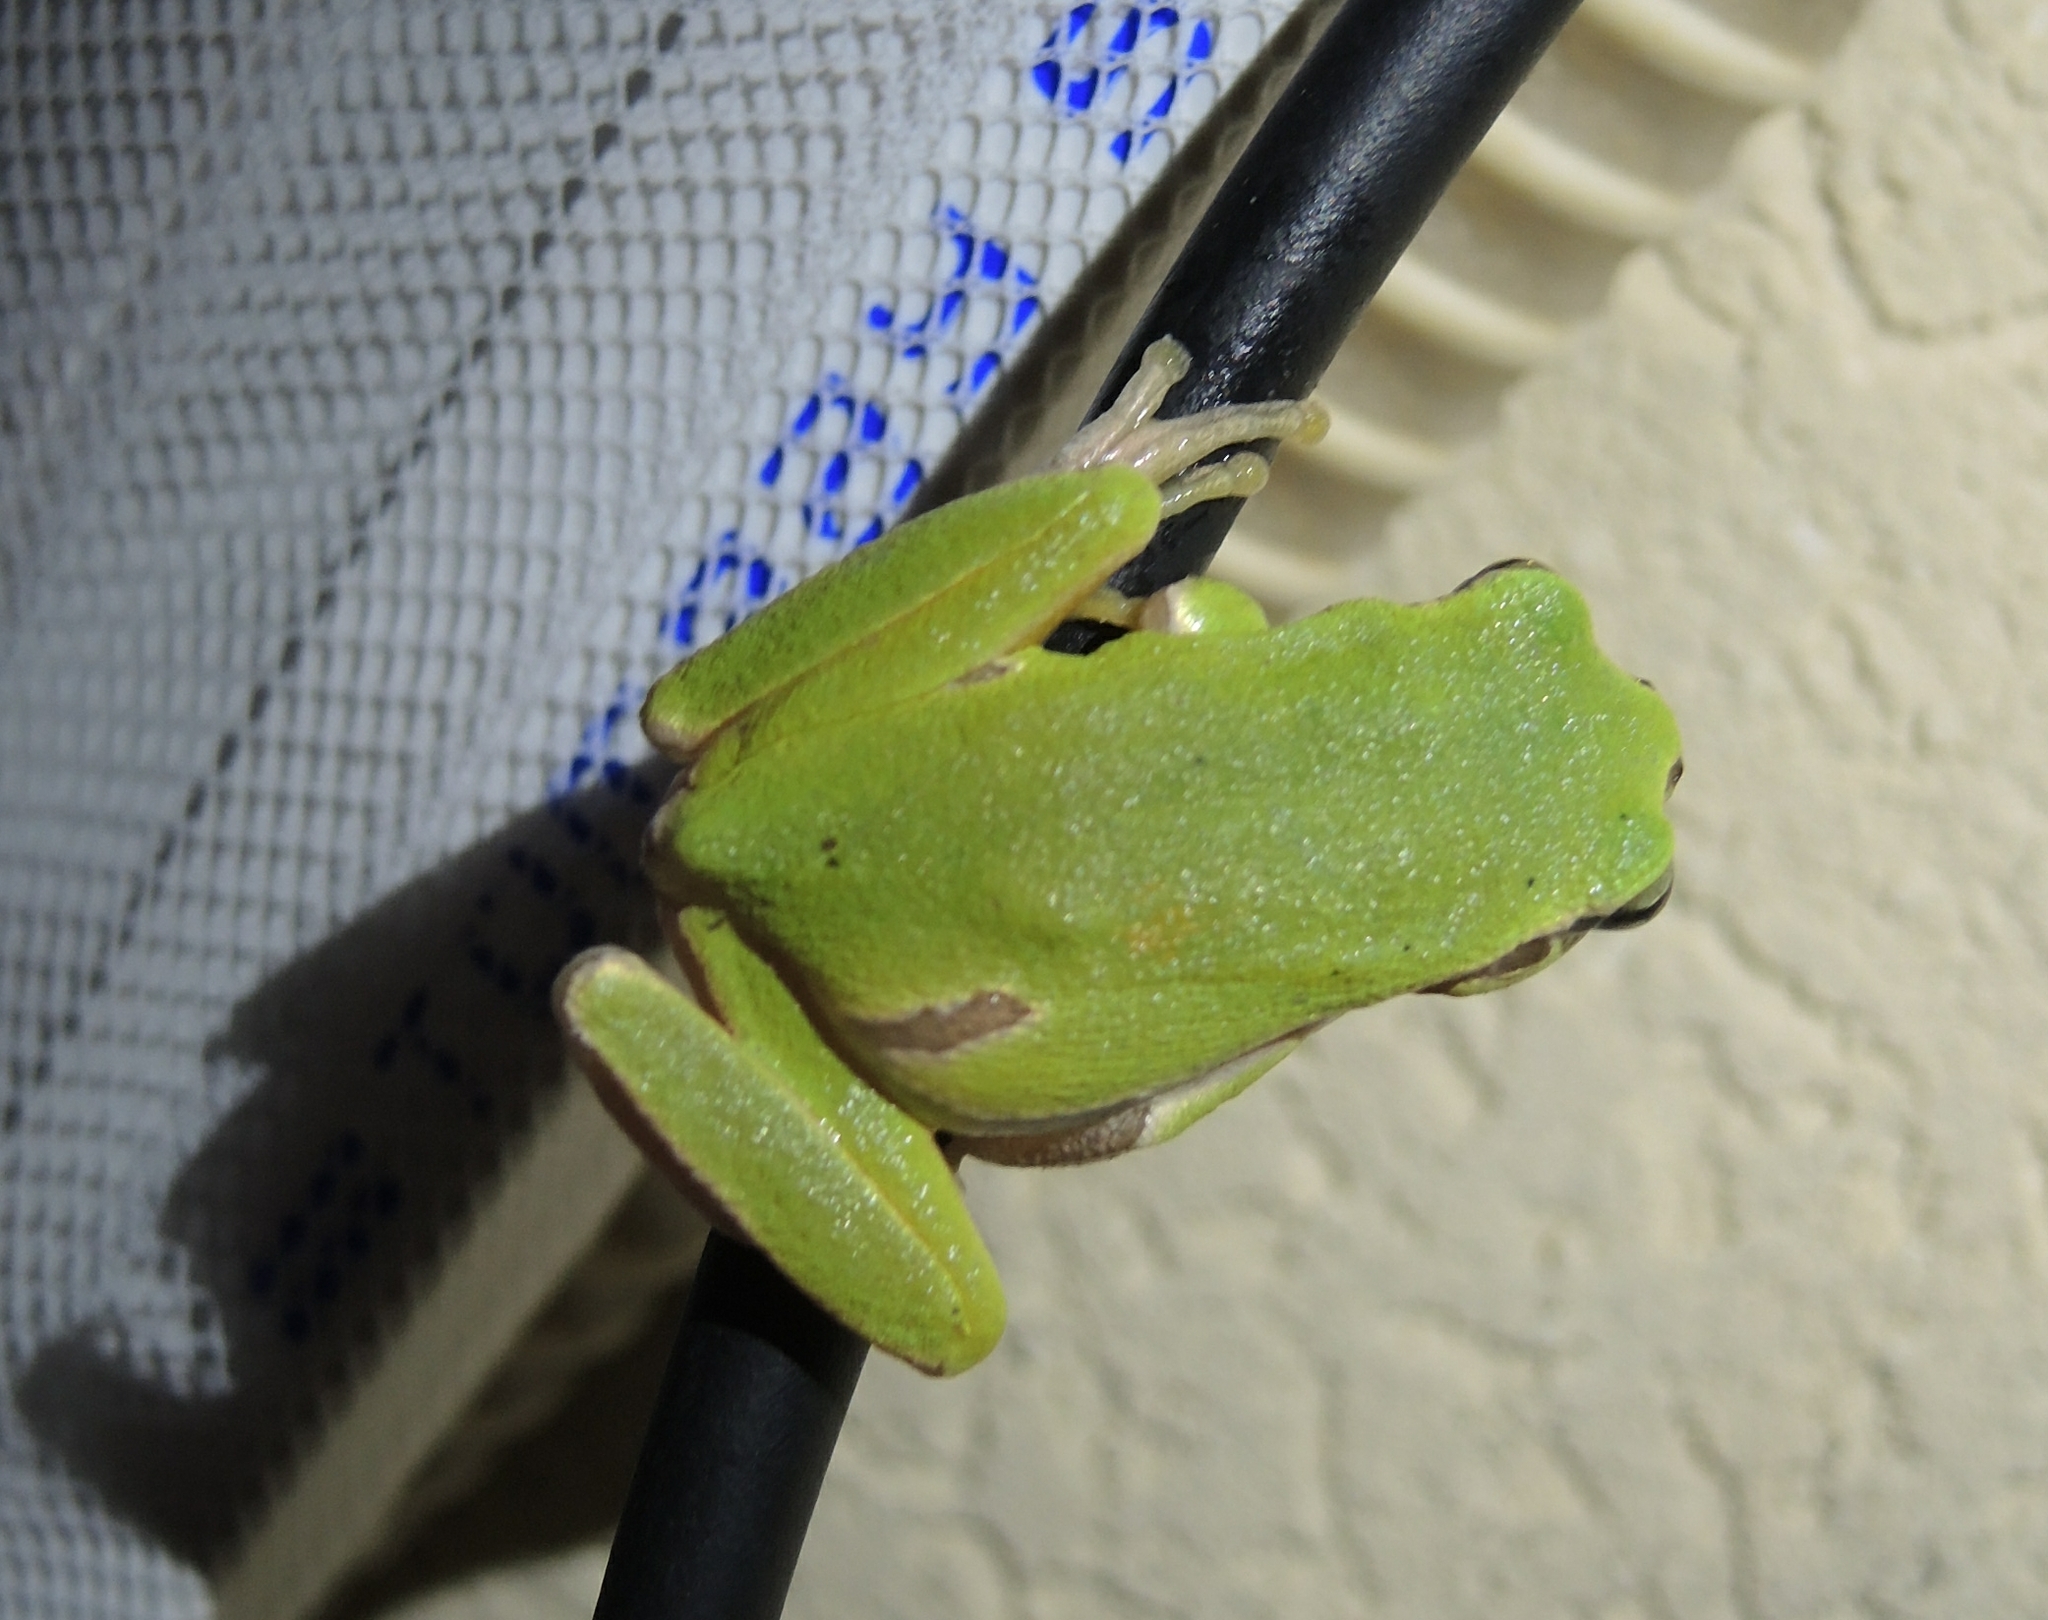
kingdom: Animalia
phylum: Chordata
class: Amphibia
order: Anura
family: Hylidae
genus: Hyla
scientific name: Hyla orientalis
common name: Caucasian treefrog
